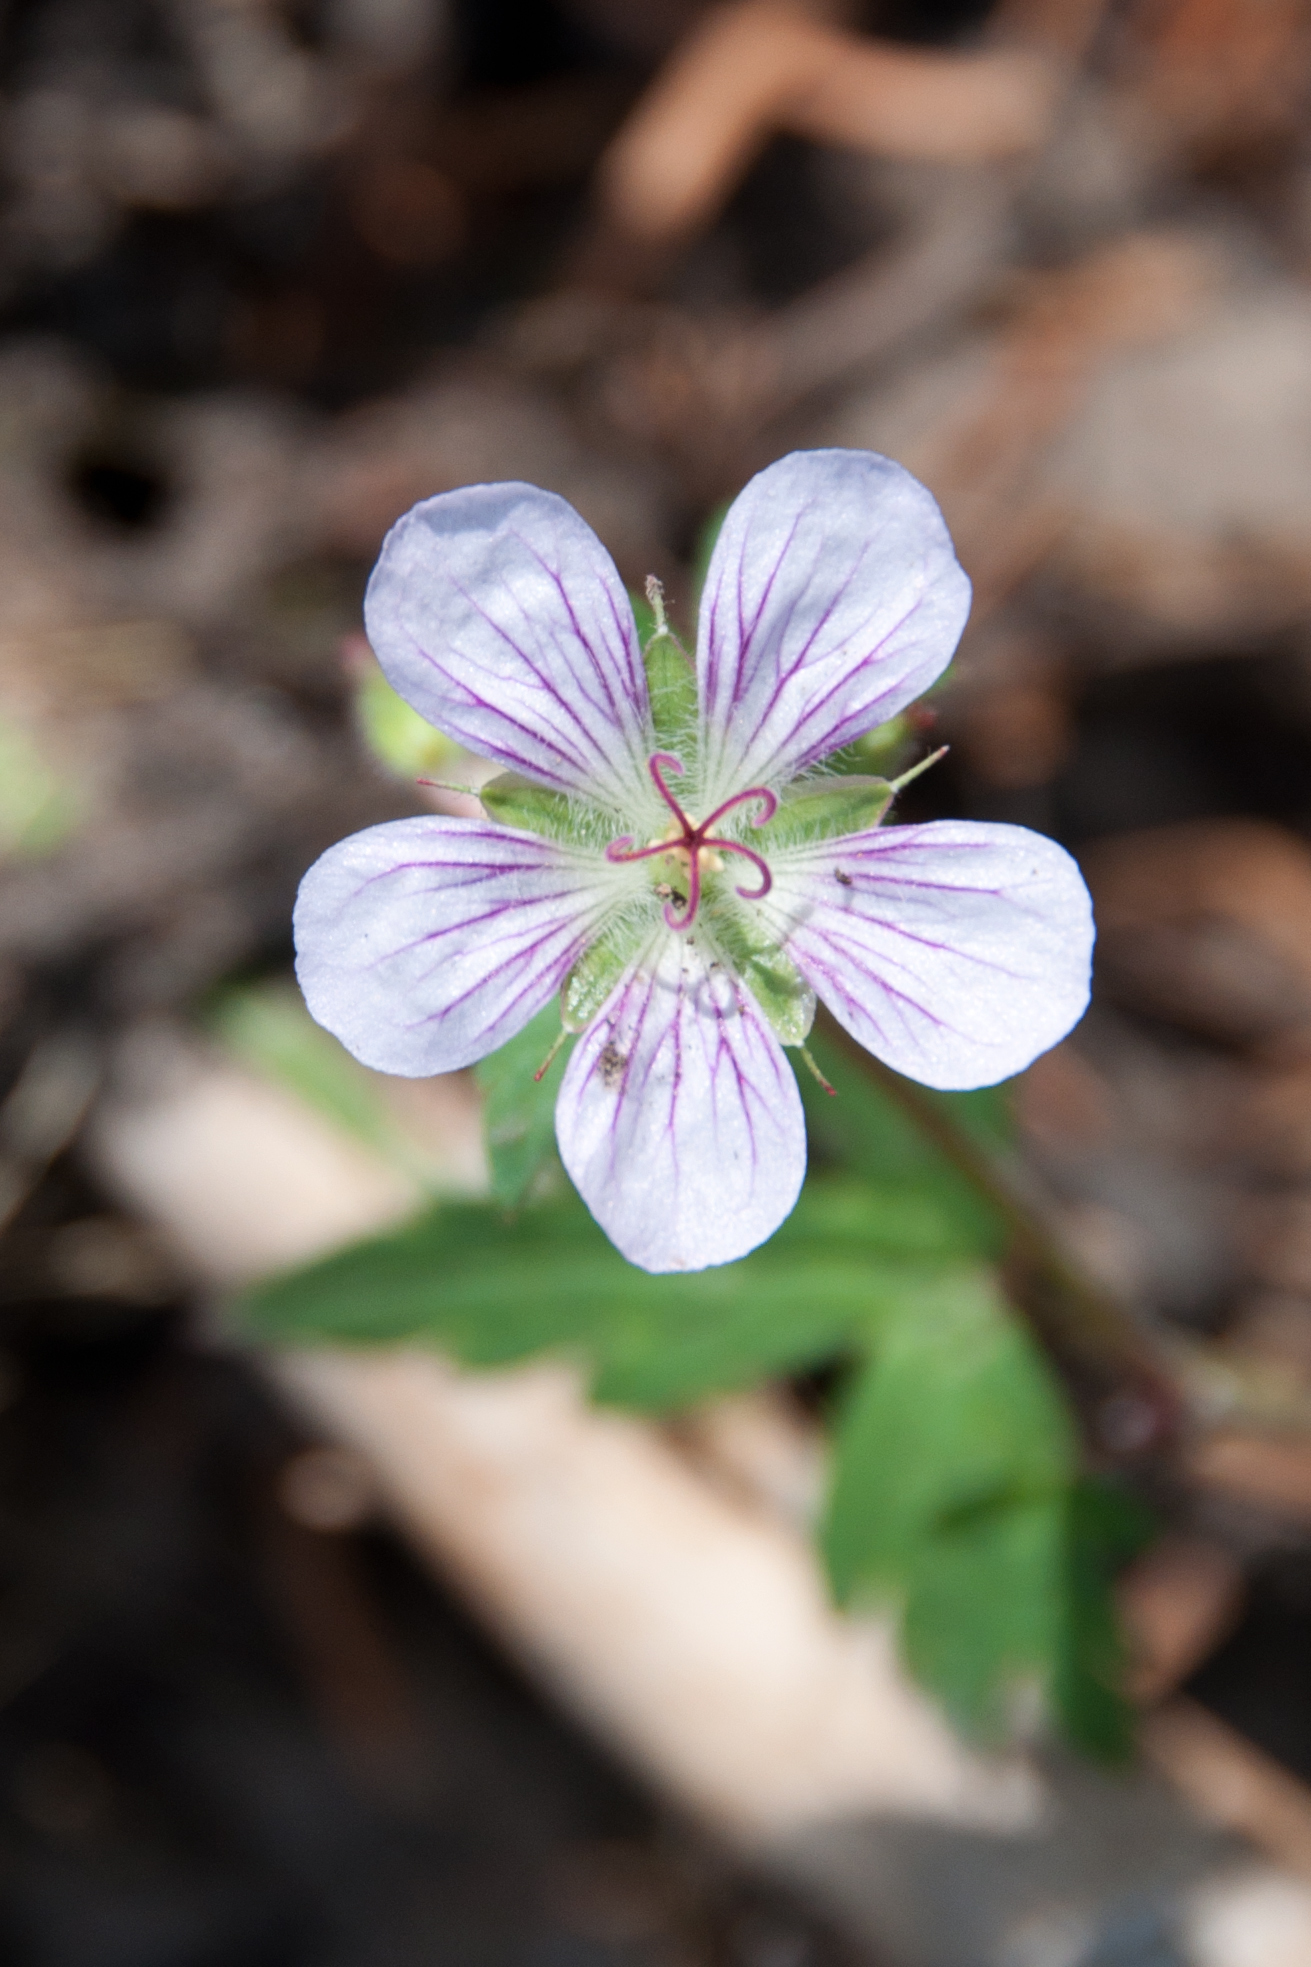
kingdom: Plantae
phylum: Tracheophyta
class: Magnoliopsida
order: Geraniales
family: Geraniaceae
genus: Geranium
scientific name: Geranium richardsonii
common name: Richardson's crane's-bill
